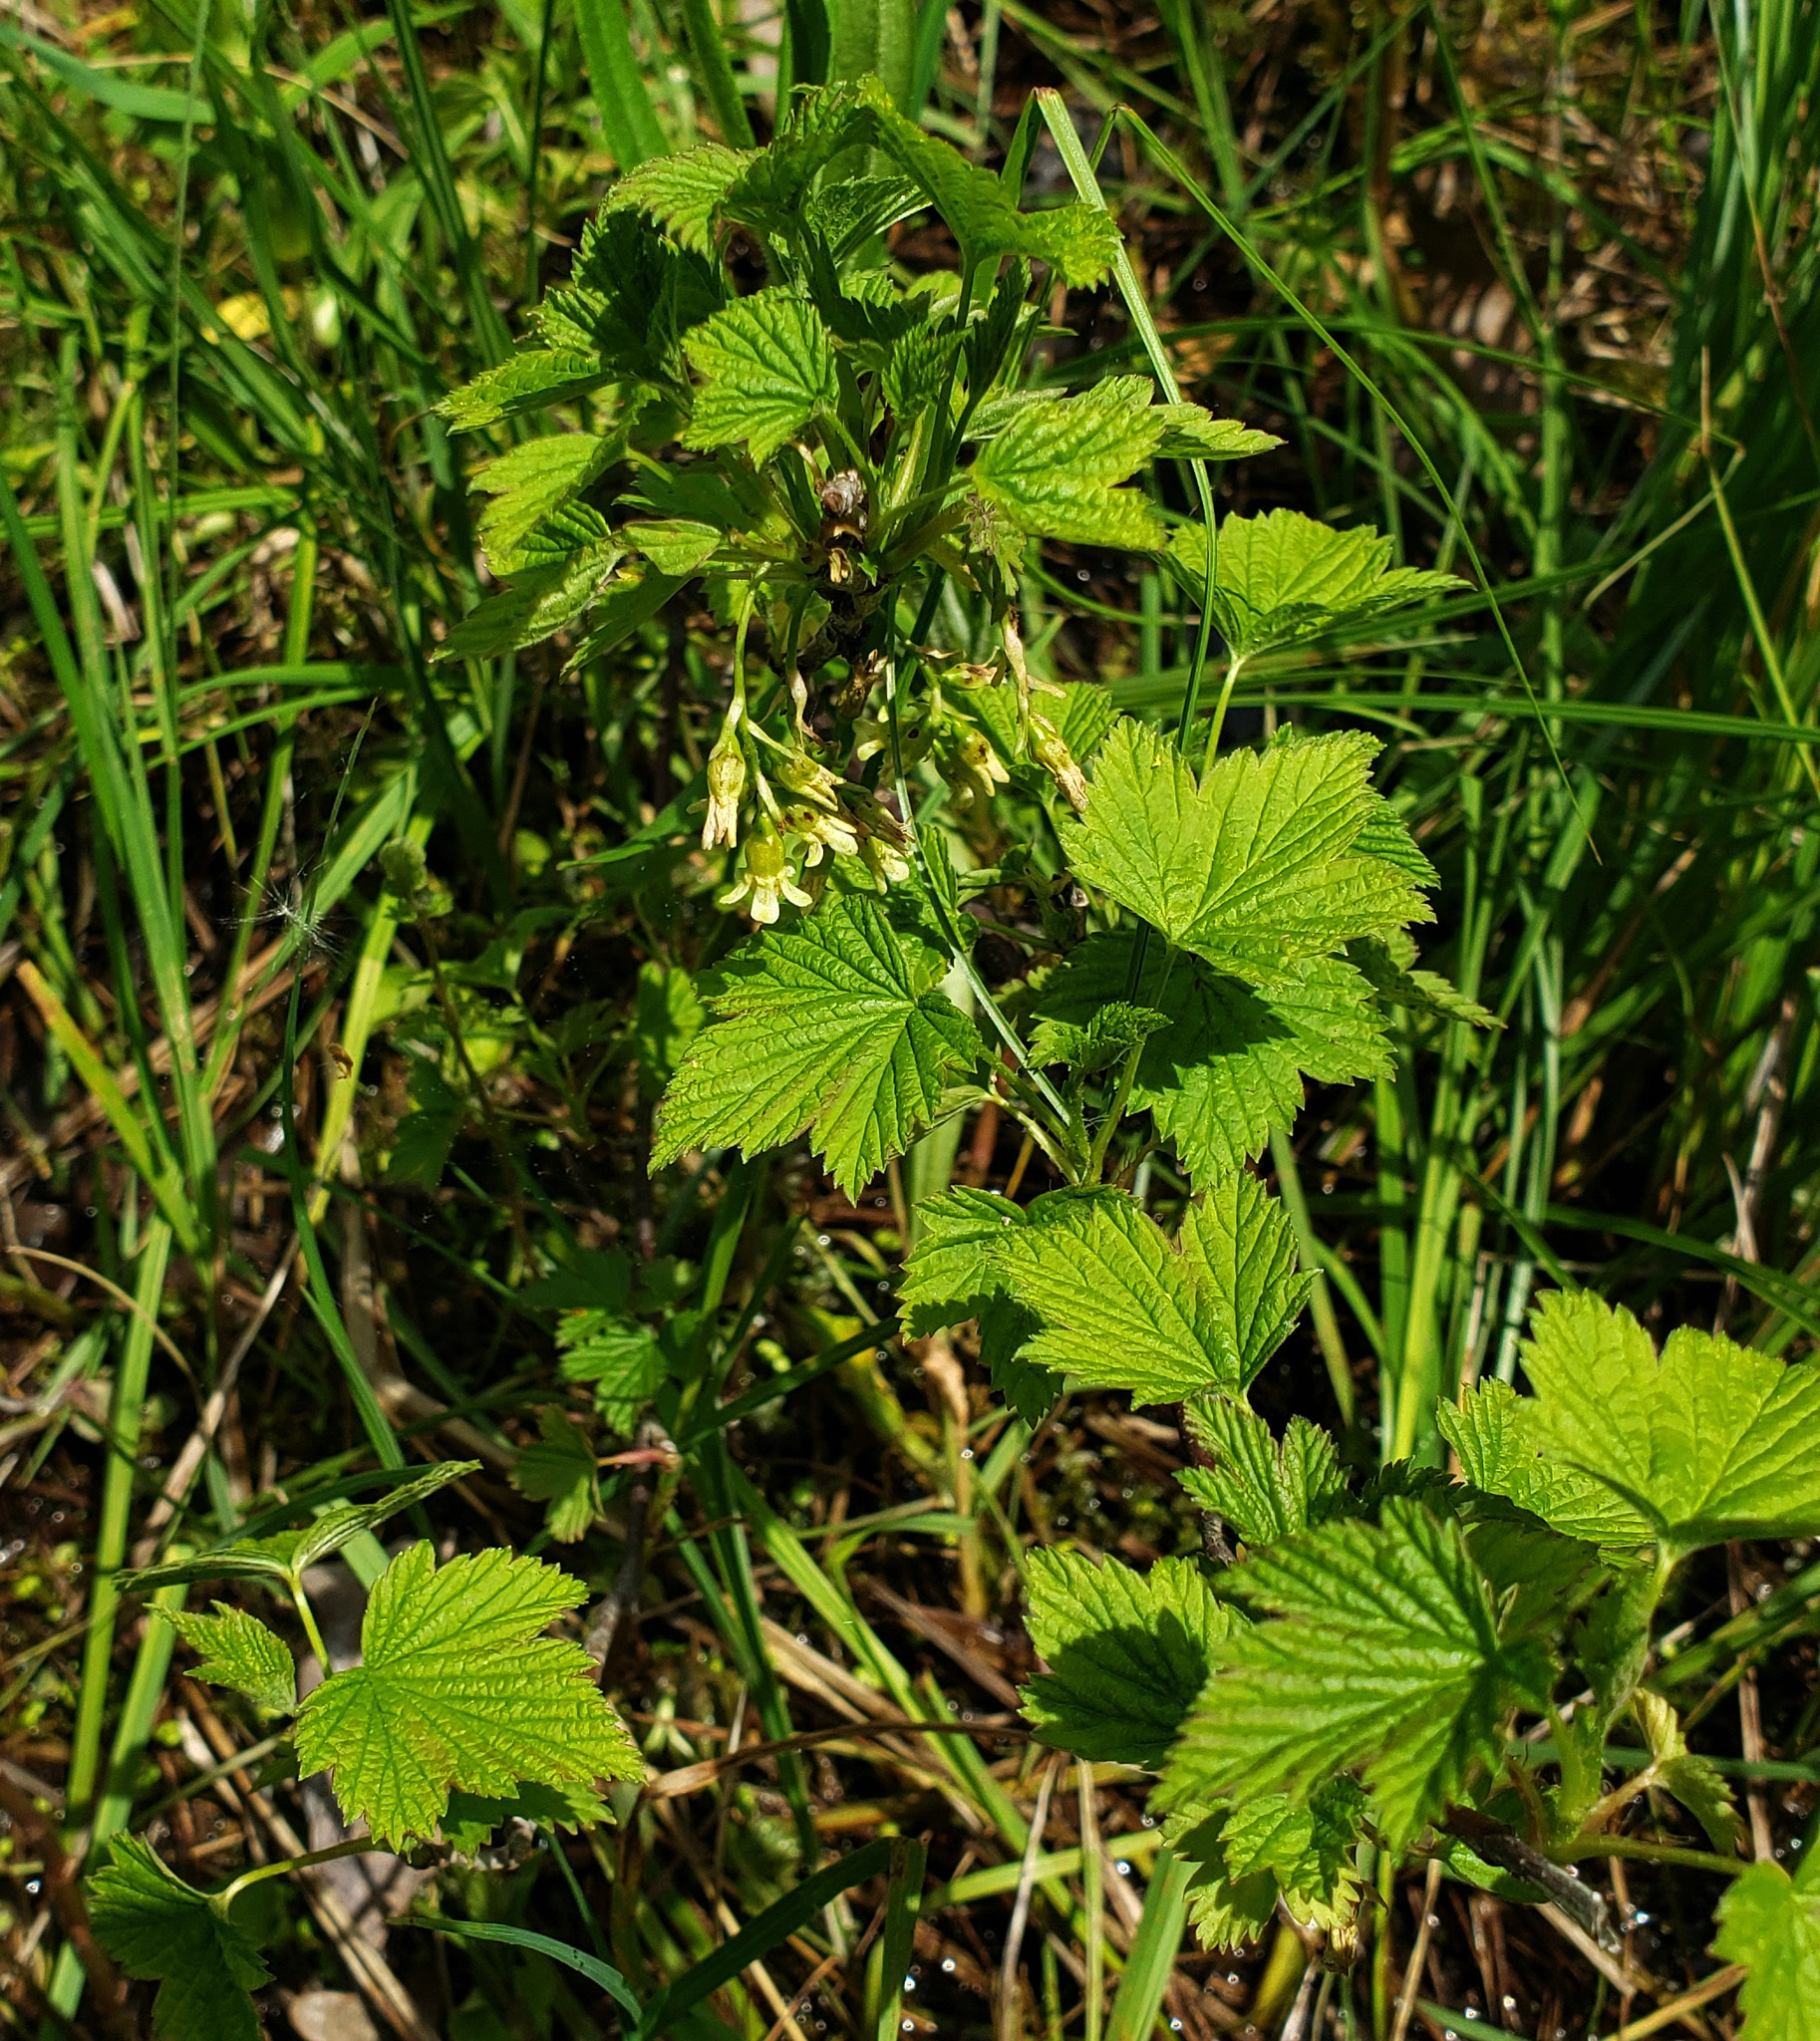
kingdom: Plantae
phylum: Tracheophyta
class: Magnoliopsida
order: Saxifragales
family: Grossulariaceae
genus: Ribes
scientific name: Ribes americanum
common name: American black currant
